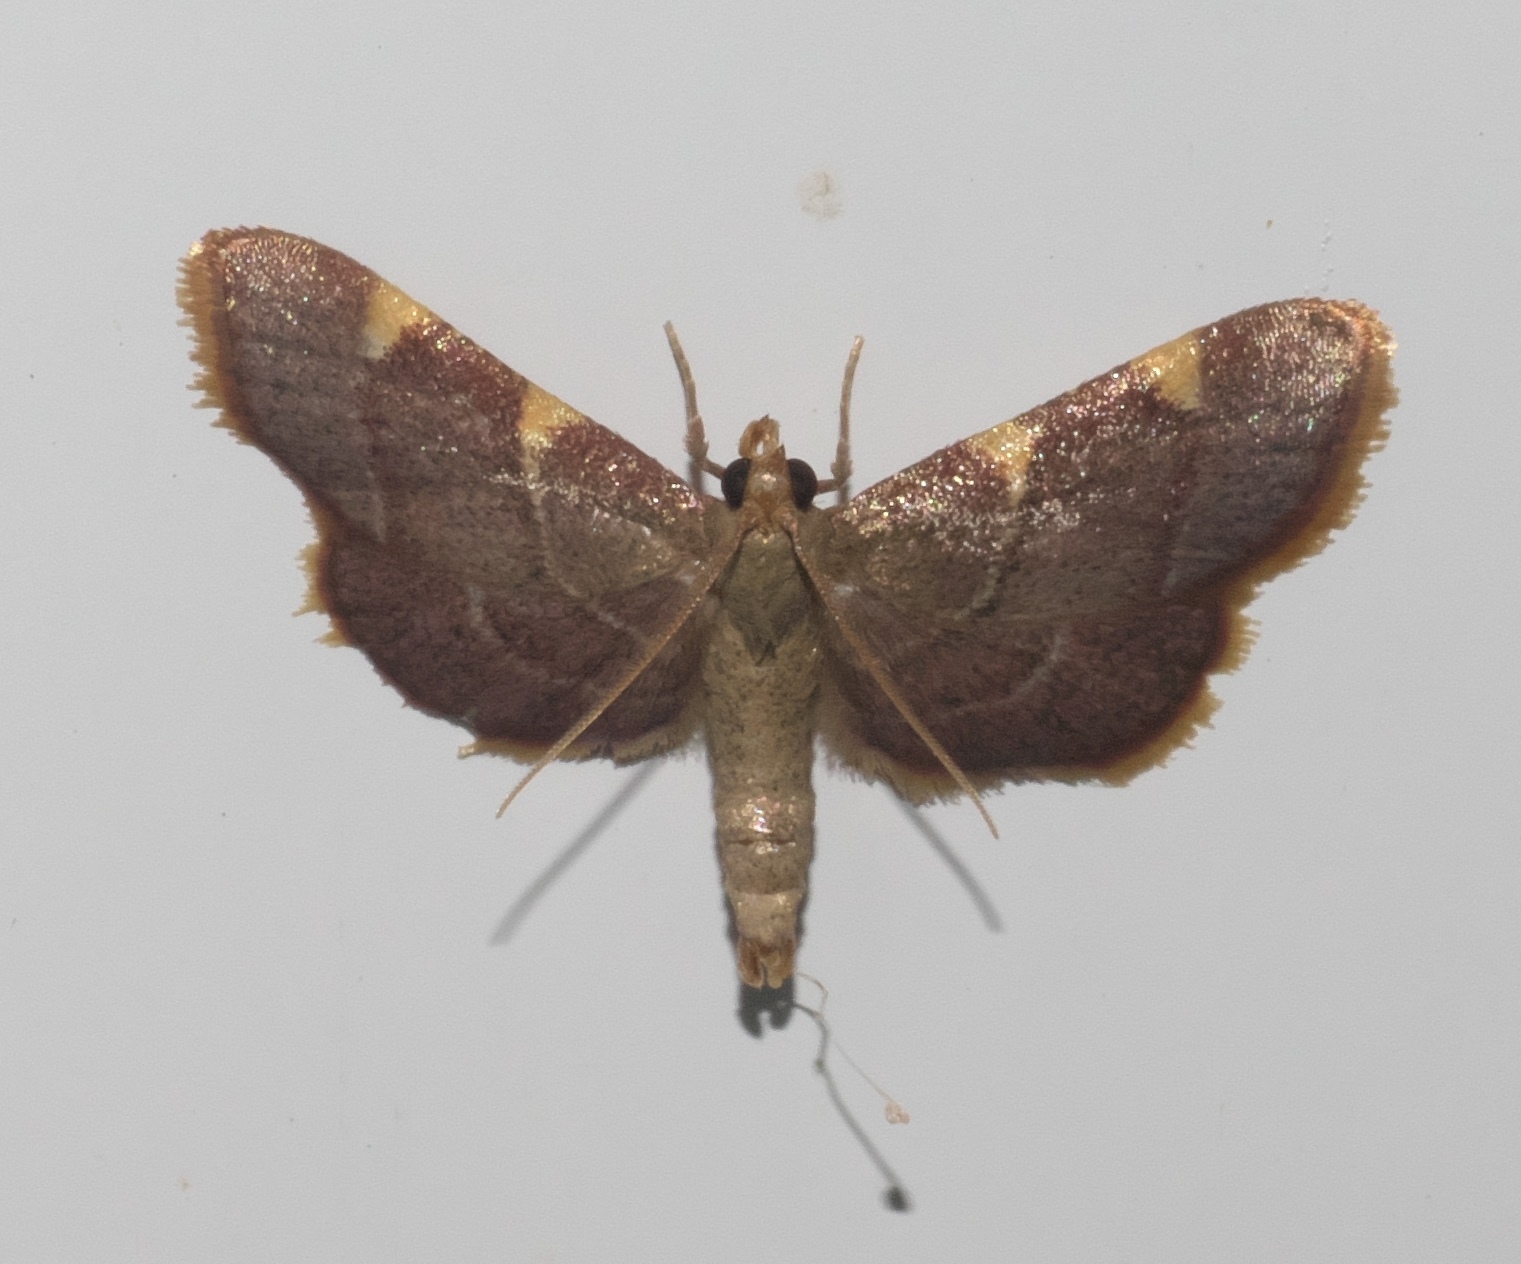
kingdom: Animalia
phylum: Arthropoda
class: Insecta
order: Lepidoptera
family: Pyralidae
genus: Hypsopygia
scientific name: Hypsopygia olinalis
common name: Yellow-fringed dolichomia moth
